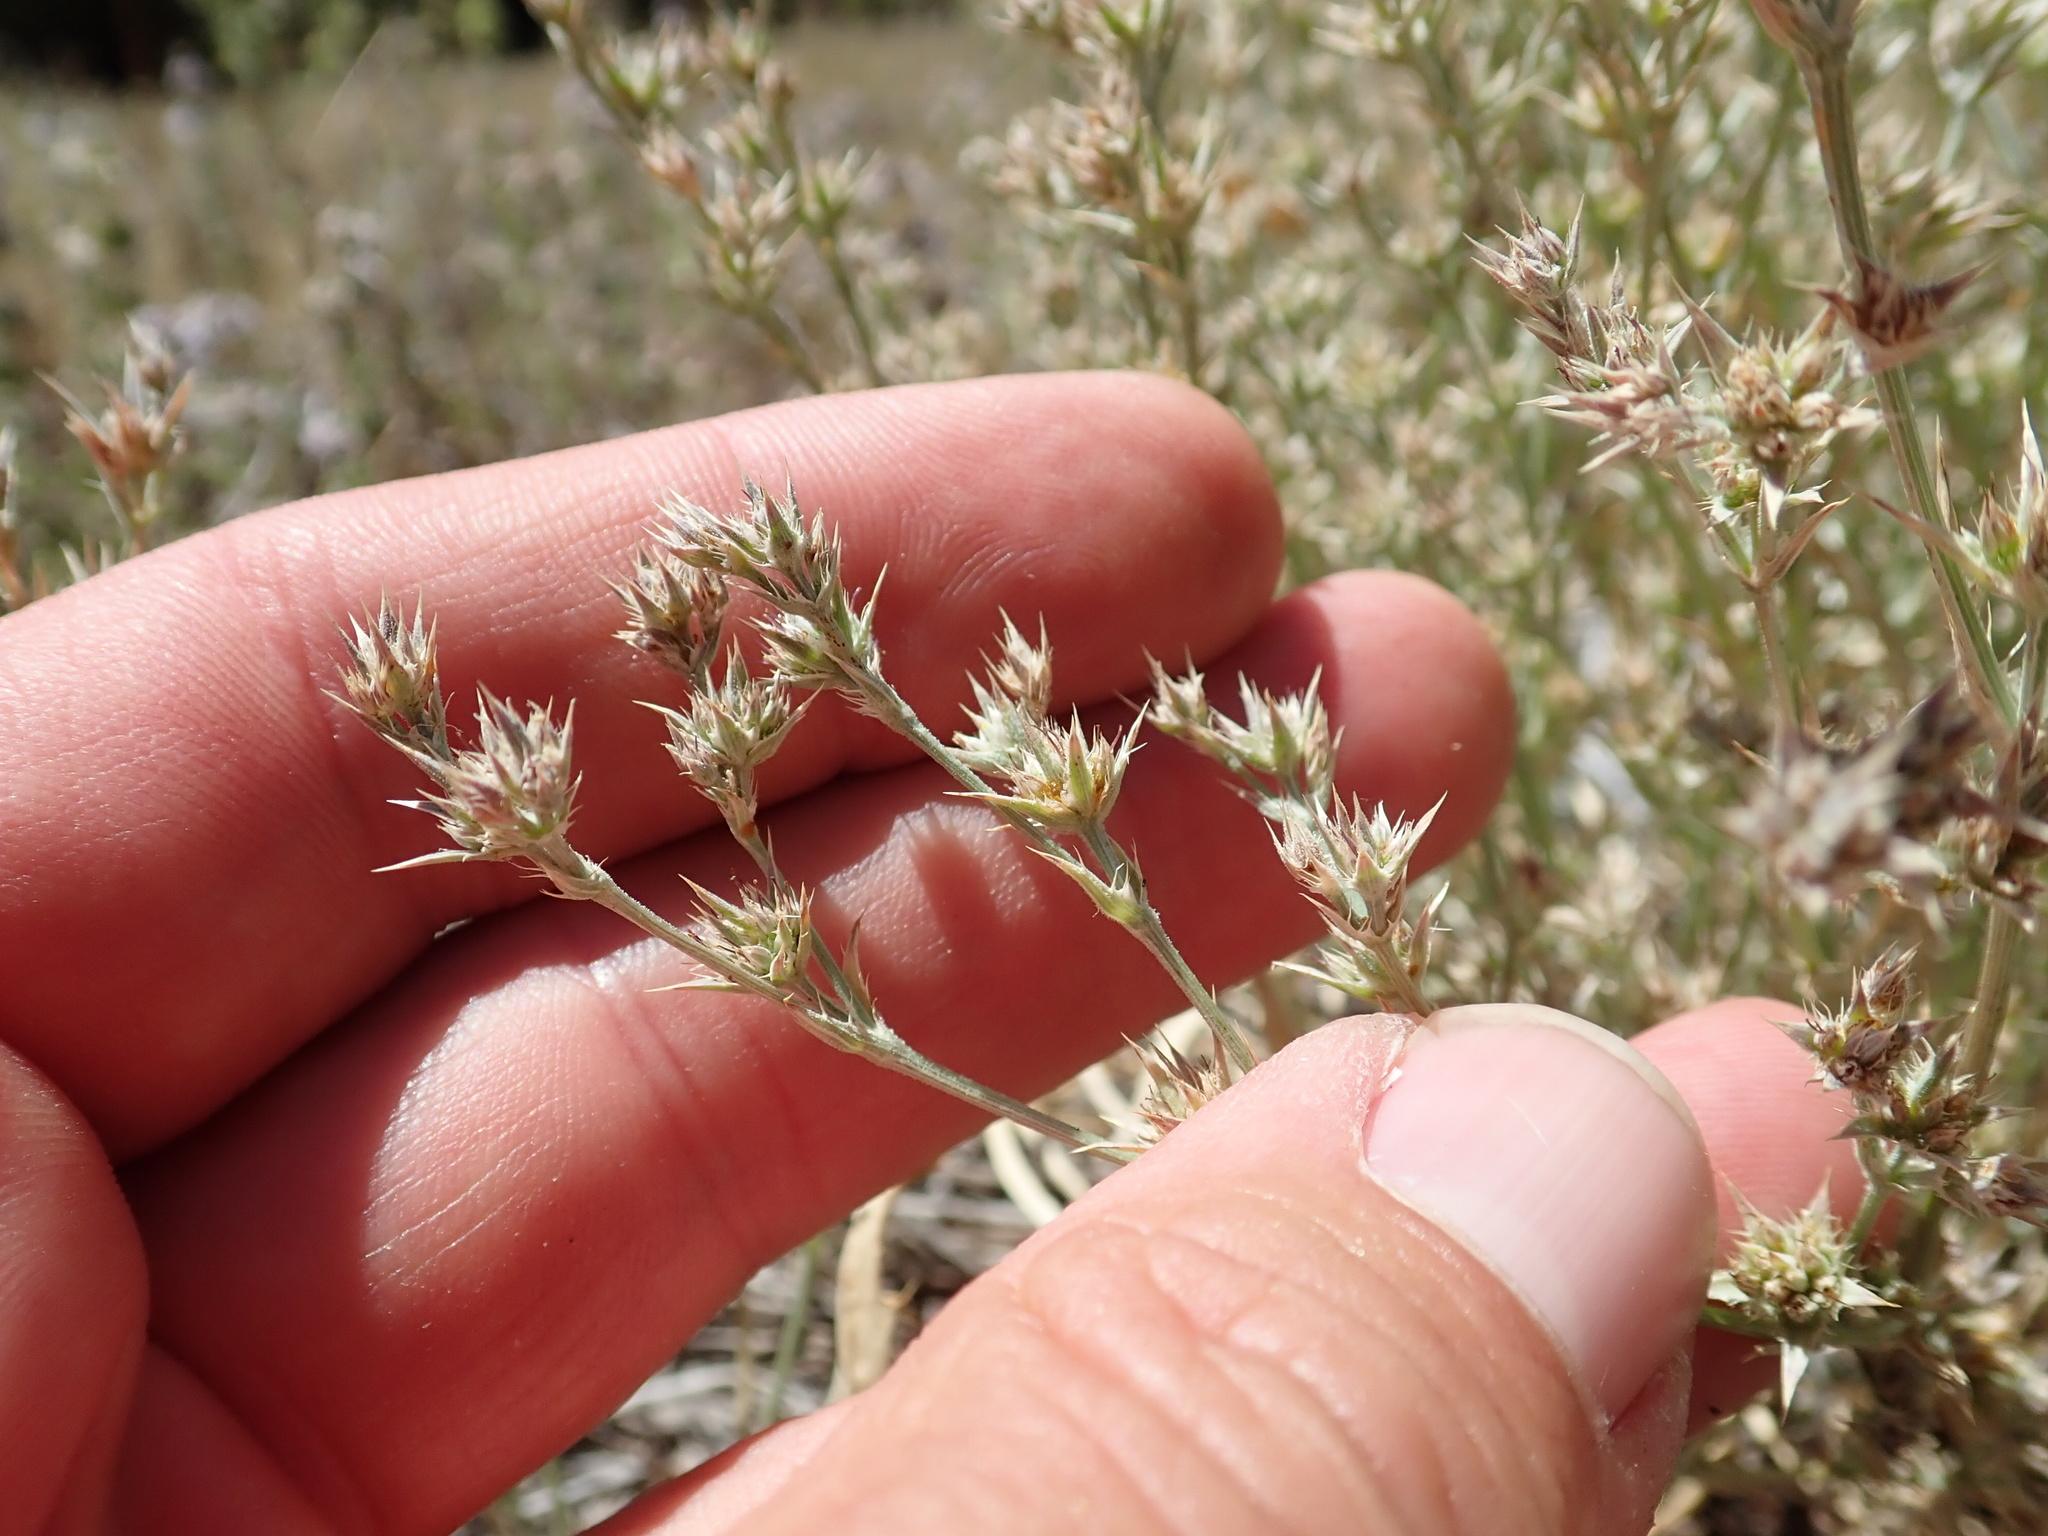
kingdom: Plantae
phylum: Tracheophyta
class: Magnoliopsida
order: Apiales
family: Apiaceae
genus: Eryngium
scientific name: Eryngium constancei
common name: Loch lomond coyote thistle
